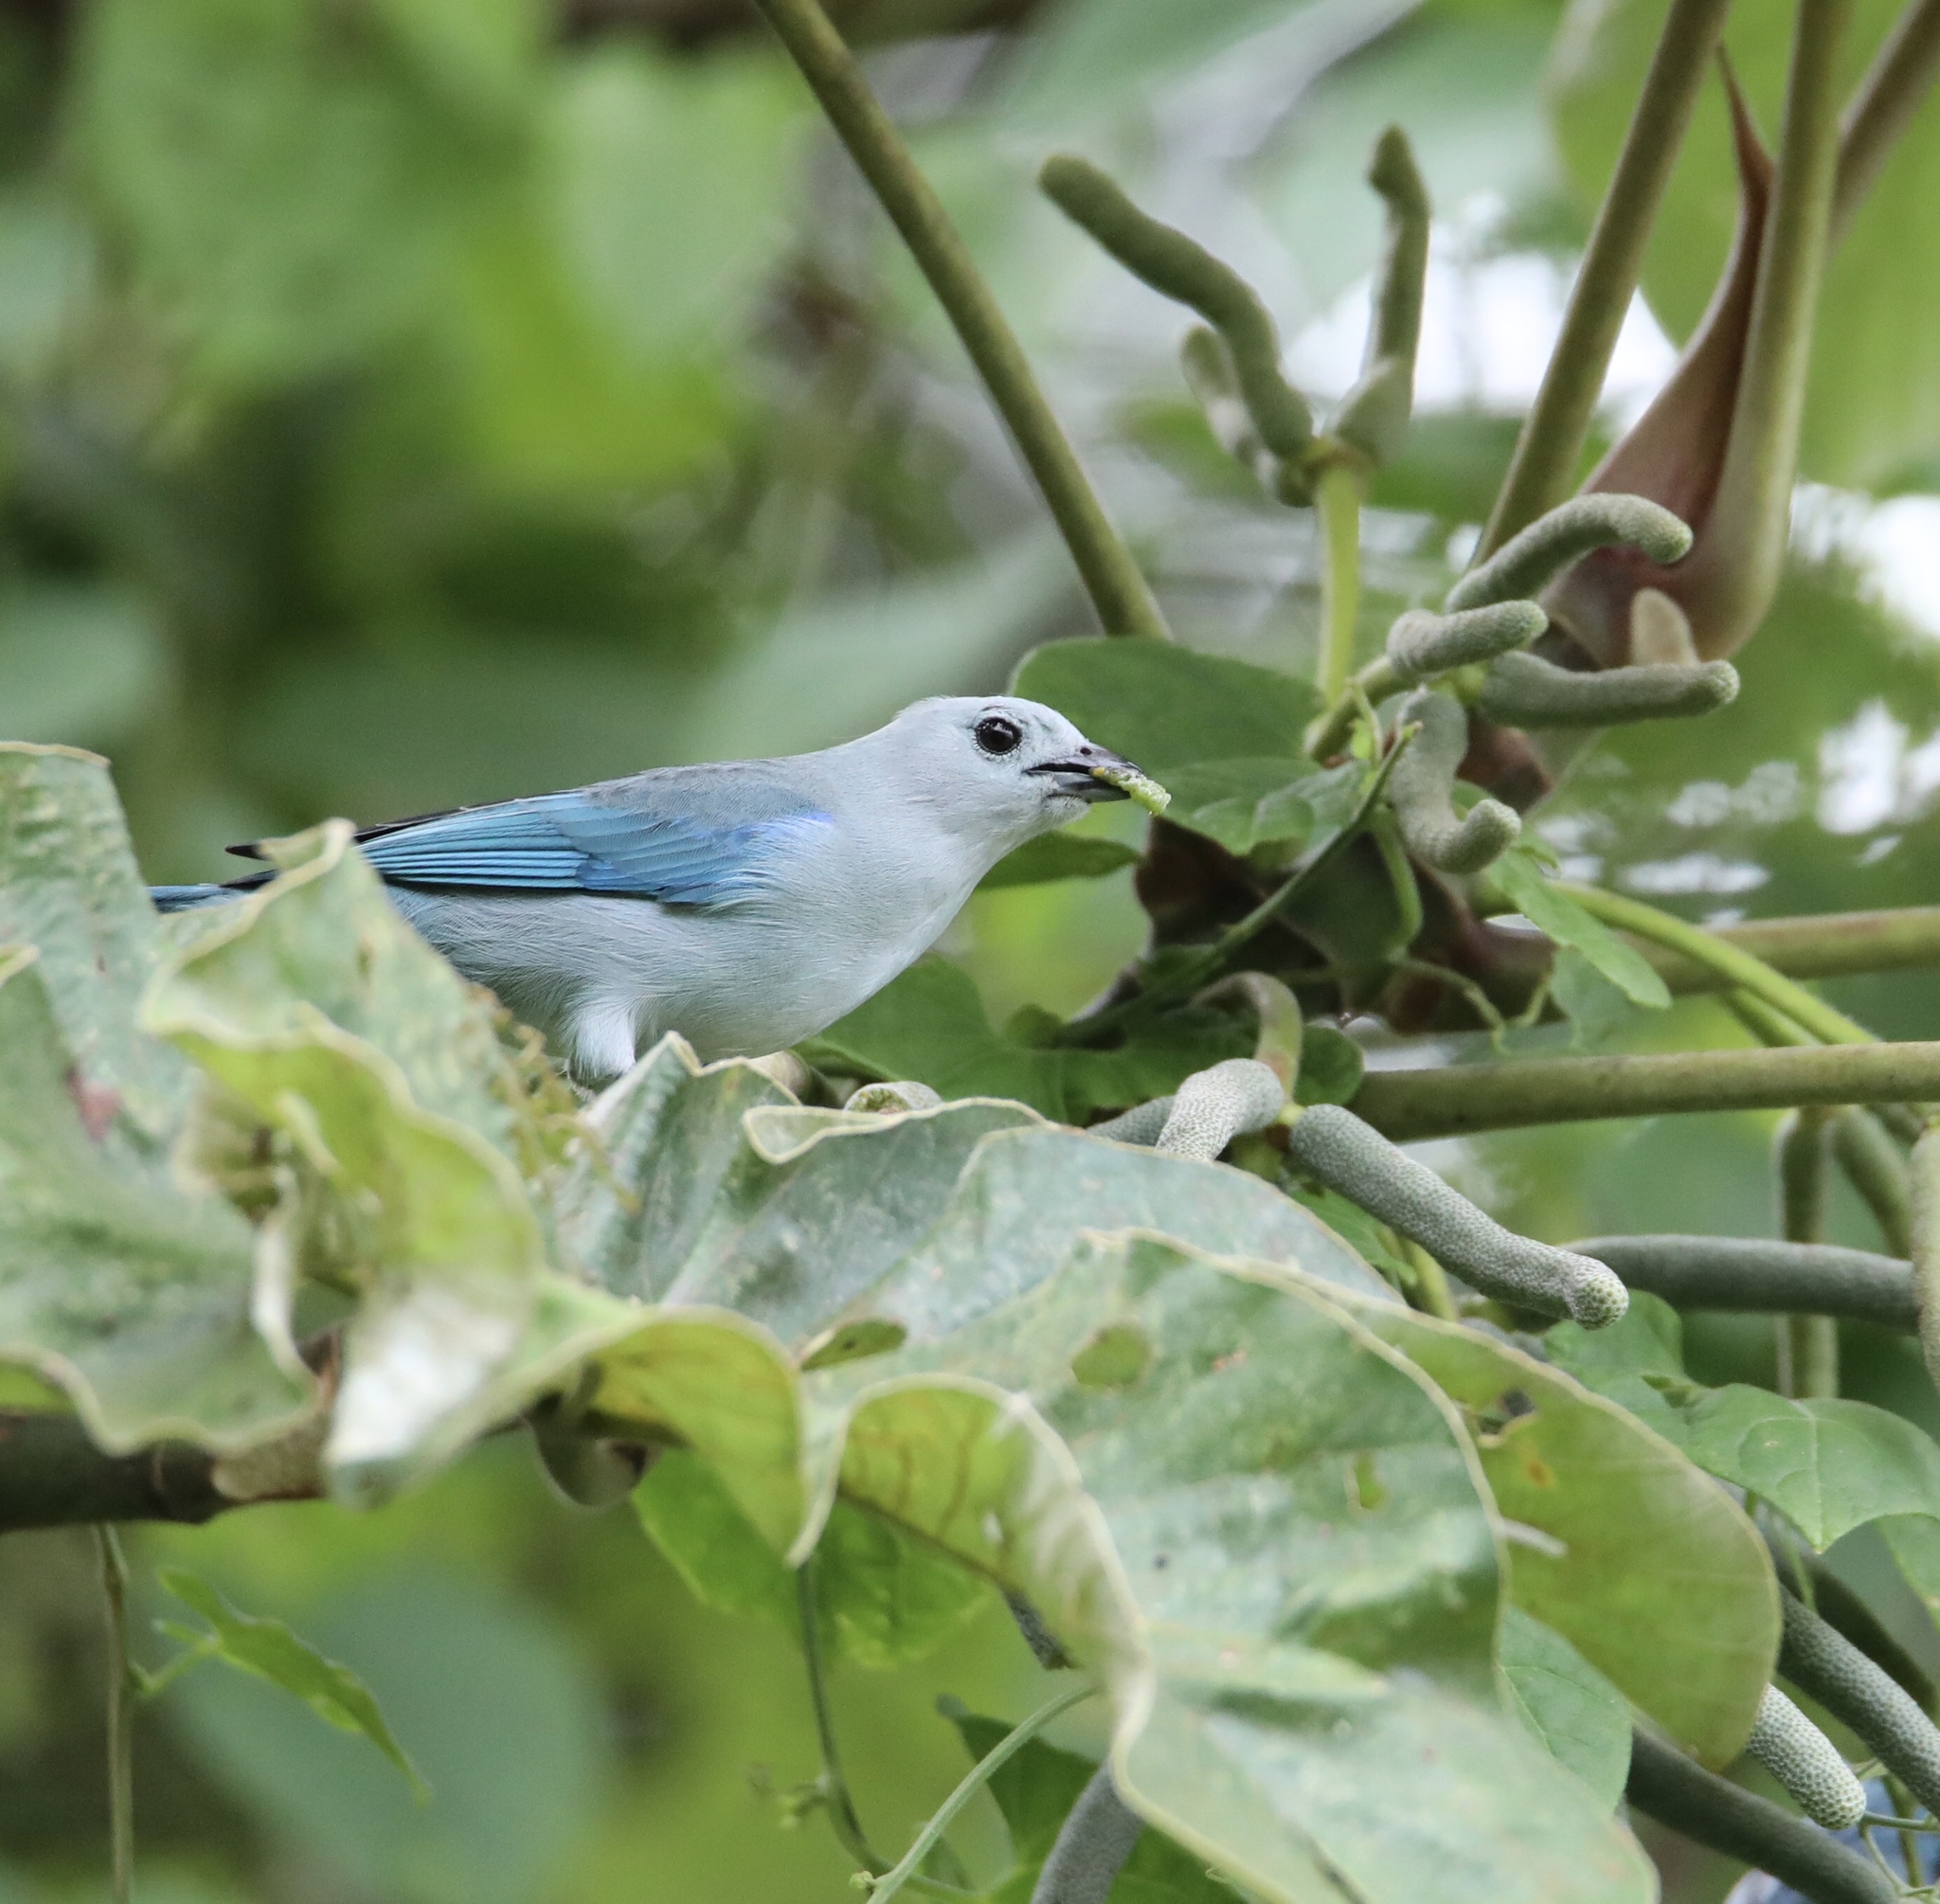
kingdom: Animalia
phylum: Chordata
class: Aves
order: Passeriformes
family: Thraupidae
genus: Thraupis
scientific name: Thraupis episcopus
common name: Blue-grey tanager
